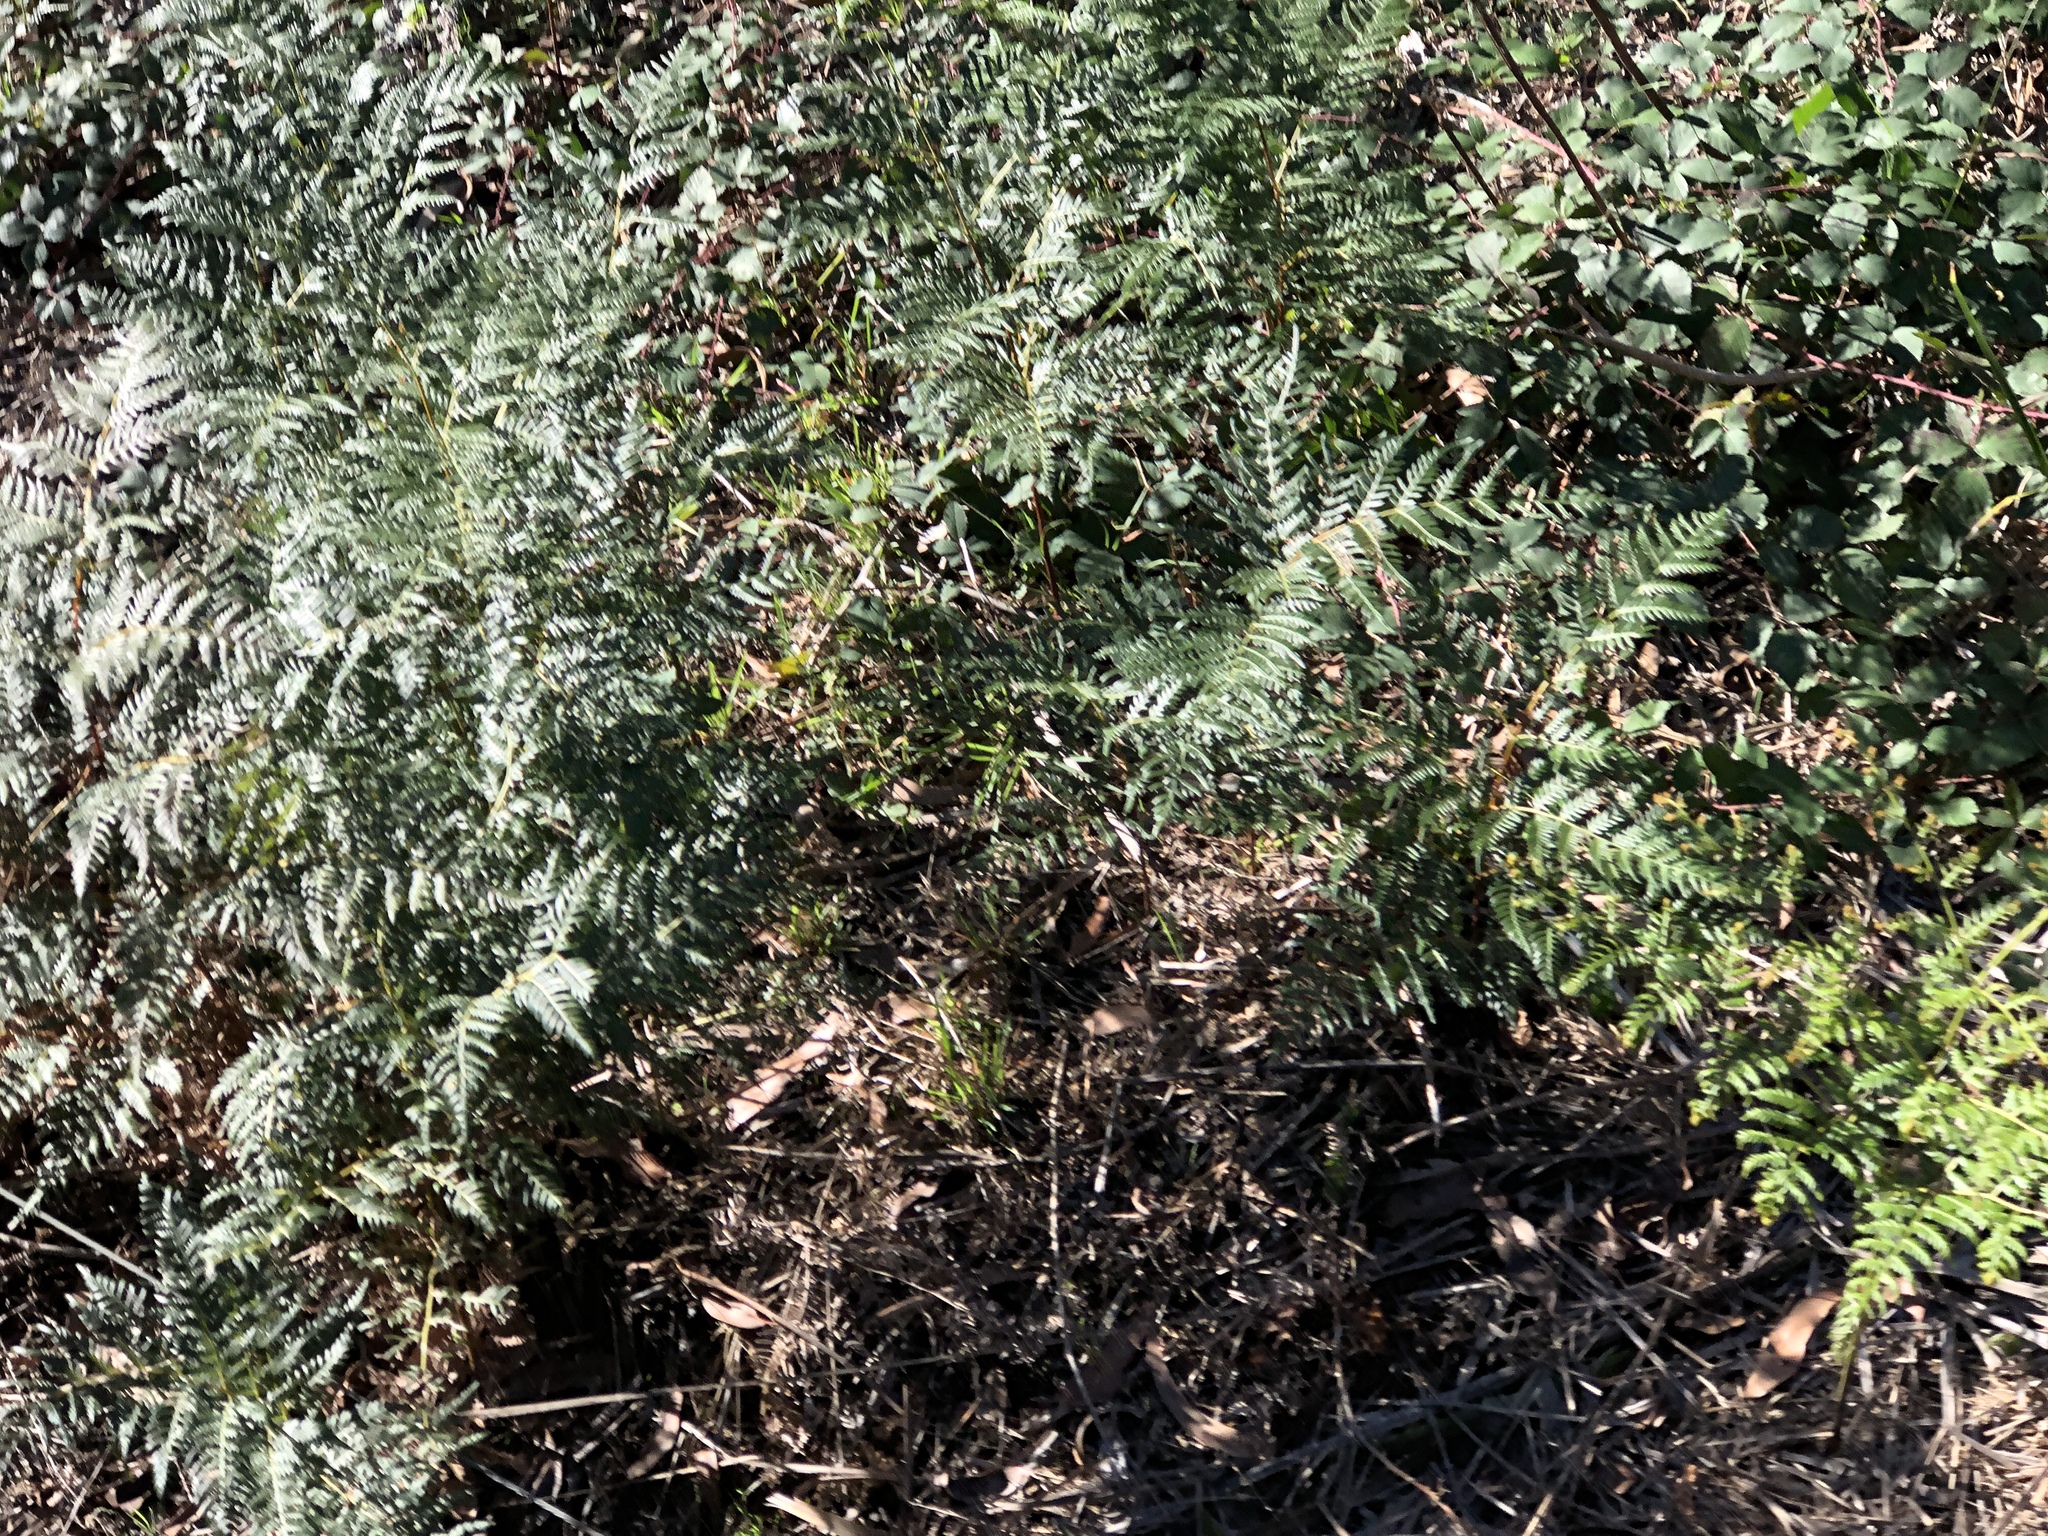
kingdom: Plantae
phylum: Tracheophyta
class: Polypodiopsida
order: Polypodiales
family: Dennstaedtiaceae
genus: Pteridium
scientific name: Pteridium esculentum
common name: Bracken fern
